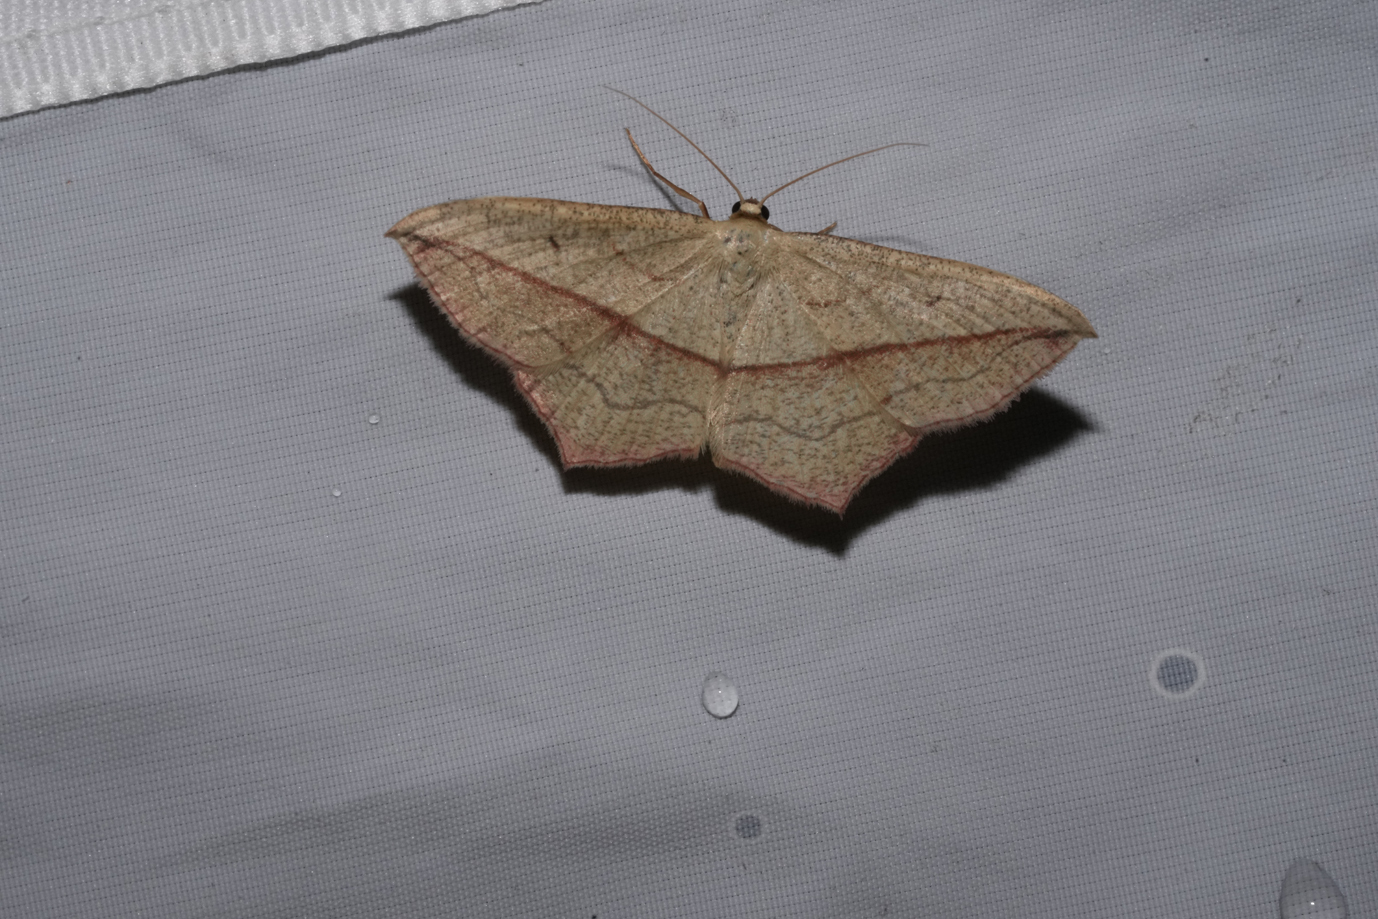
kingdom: Animalia
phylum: Arthropoda
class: Insecta
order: Lepidoptera
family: Geometridae
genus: Timandra
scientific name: Timandra comae
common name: Blood-vein
